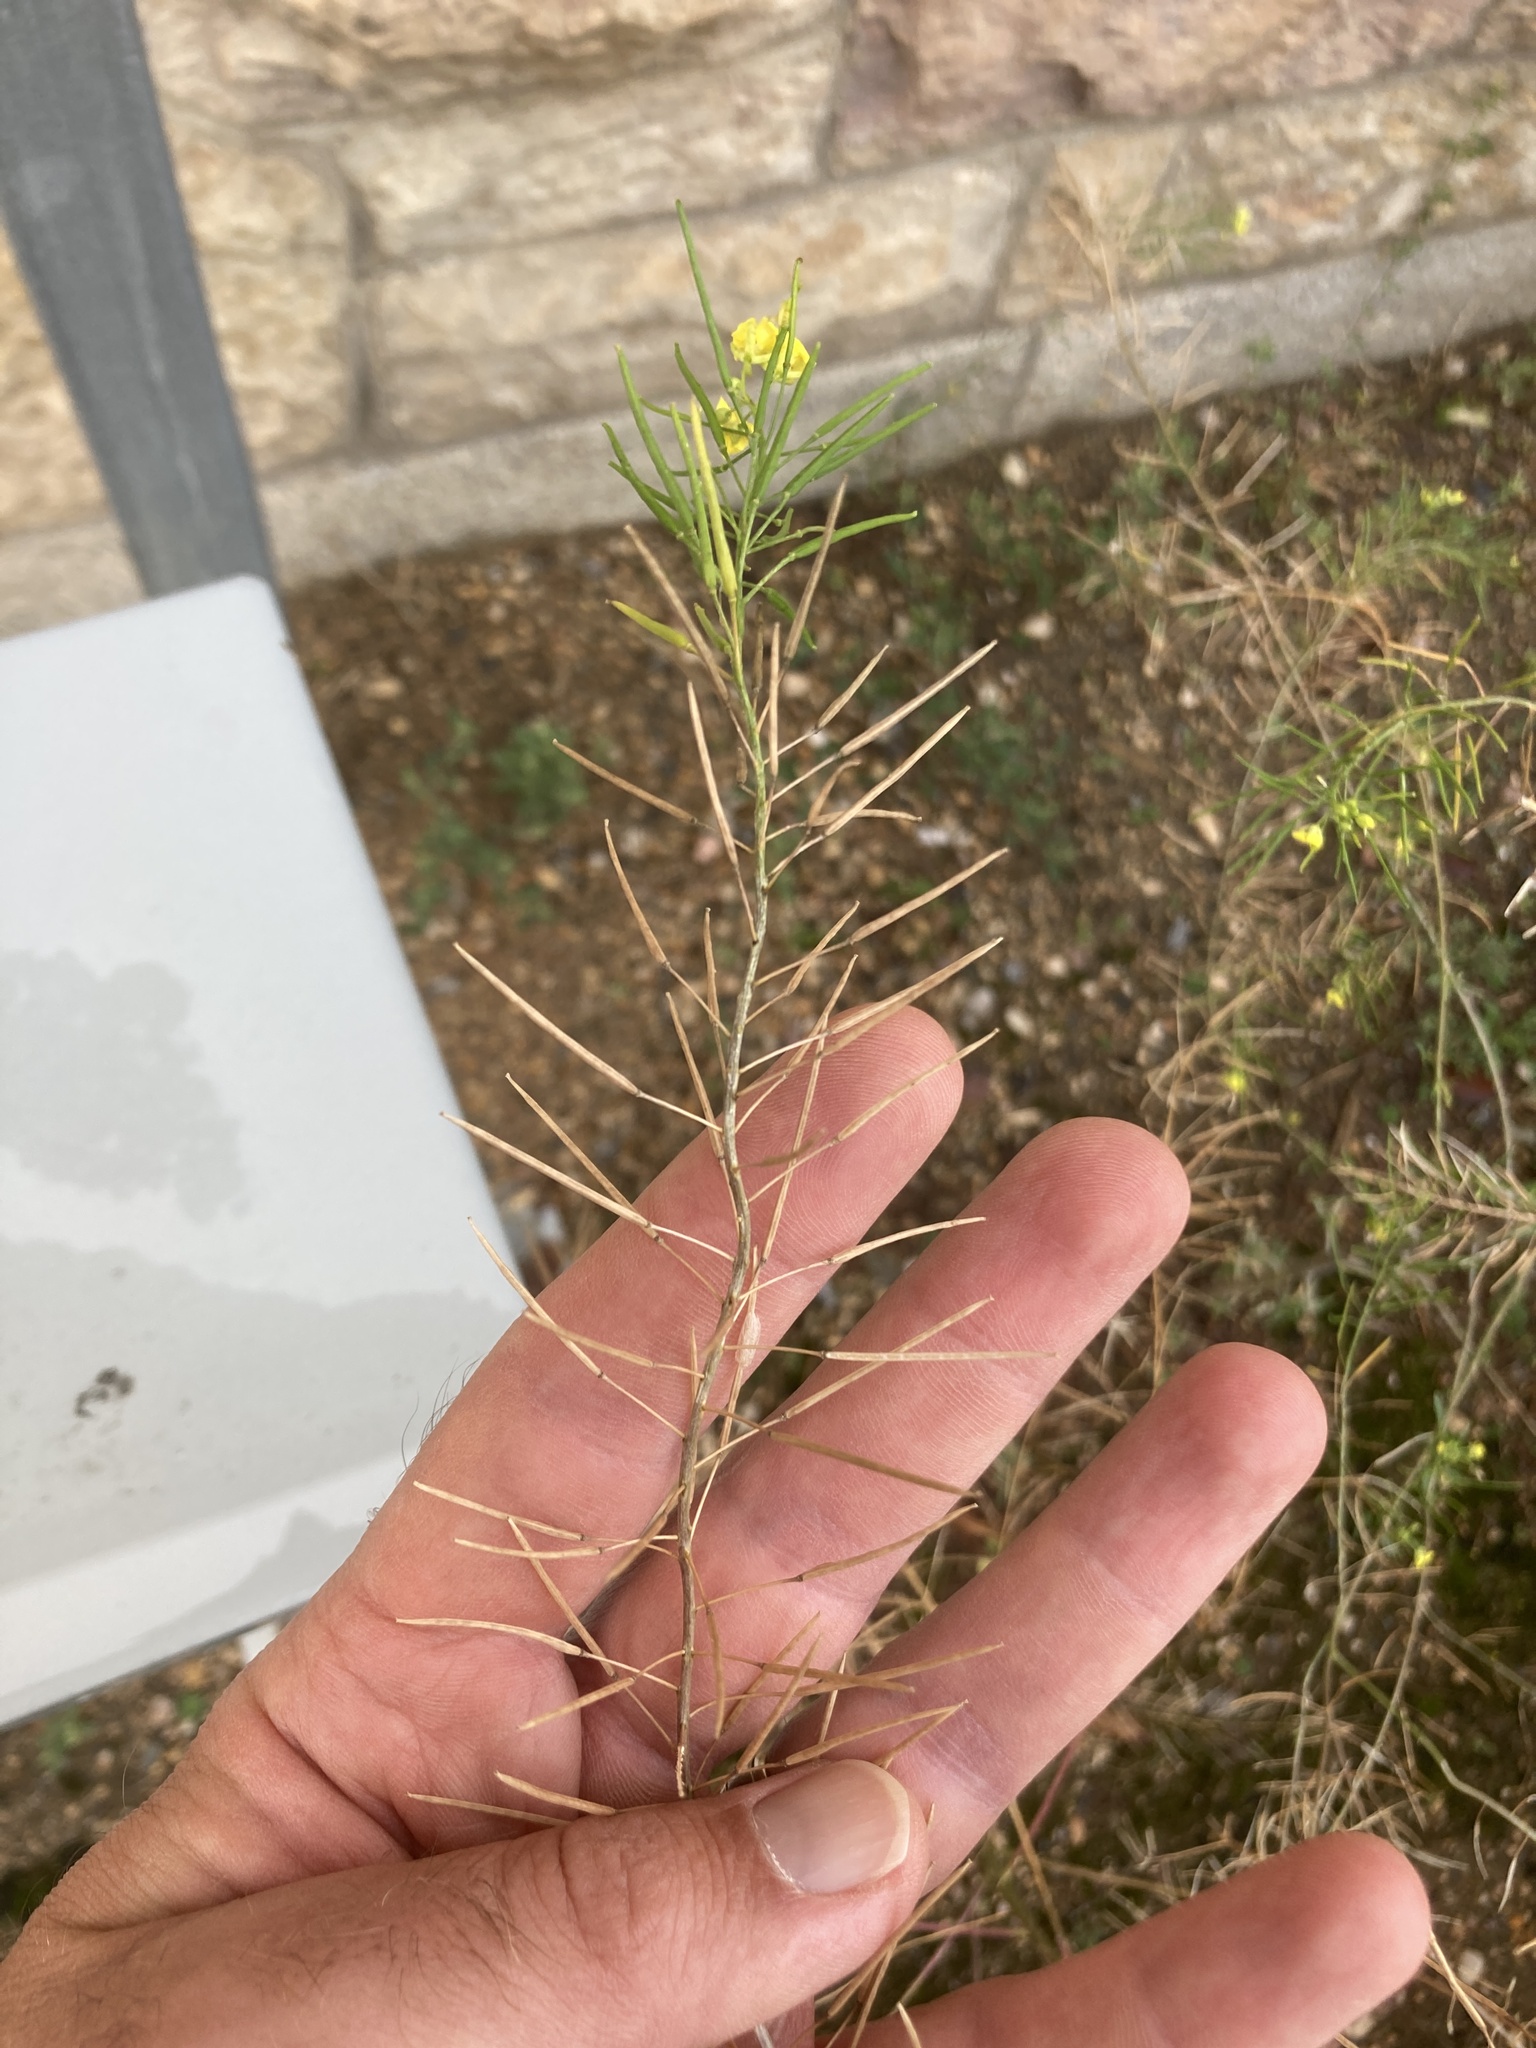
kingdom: Plantae
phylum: Tracheophyta
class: Magnoliopsida
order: Brassicales
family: Brassicaceae
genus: Sisymbrium
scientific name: Sisymbrium loeselii
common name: False london-rocket
